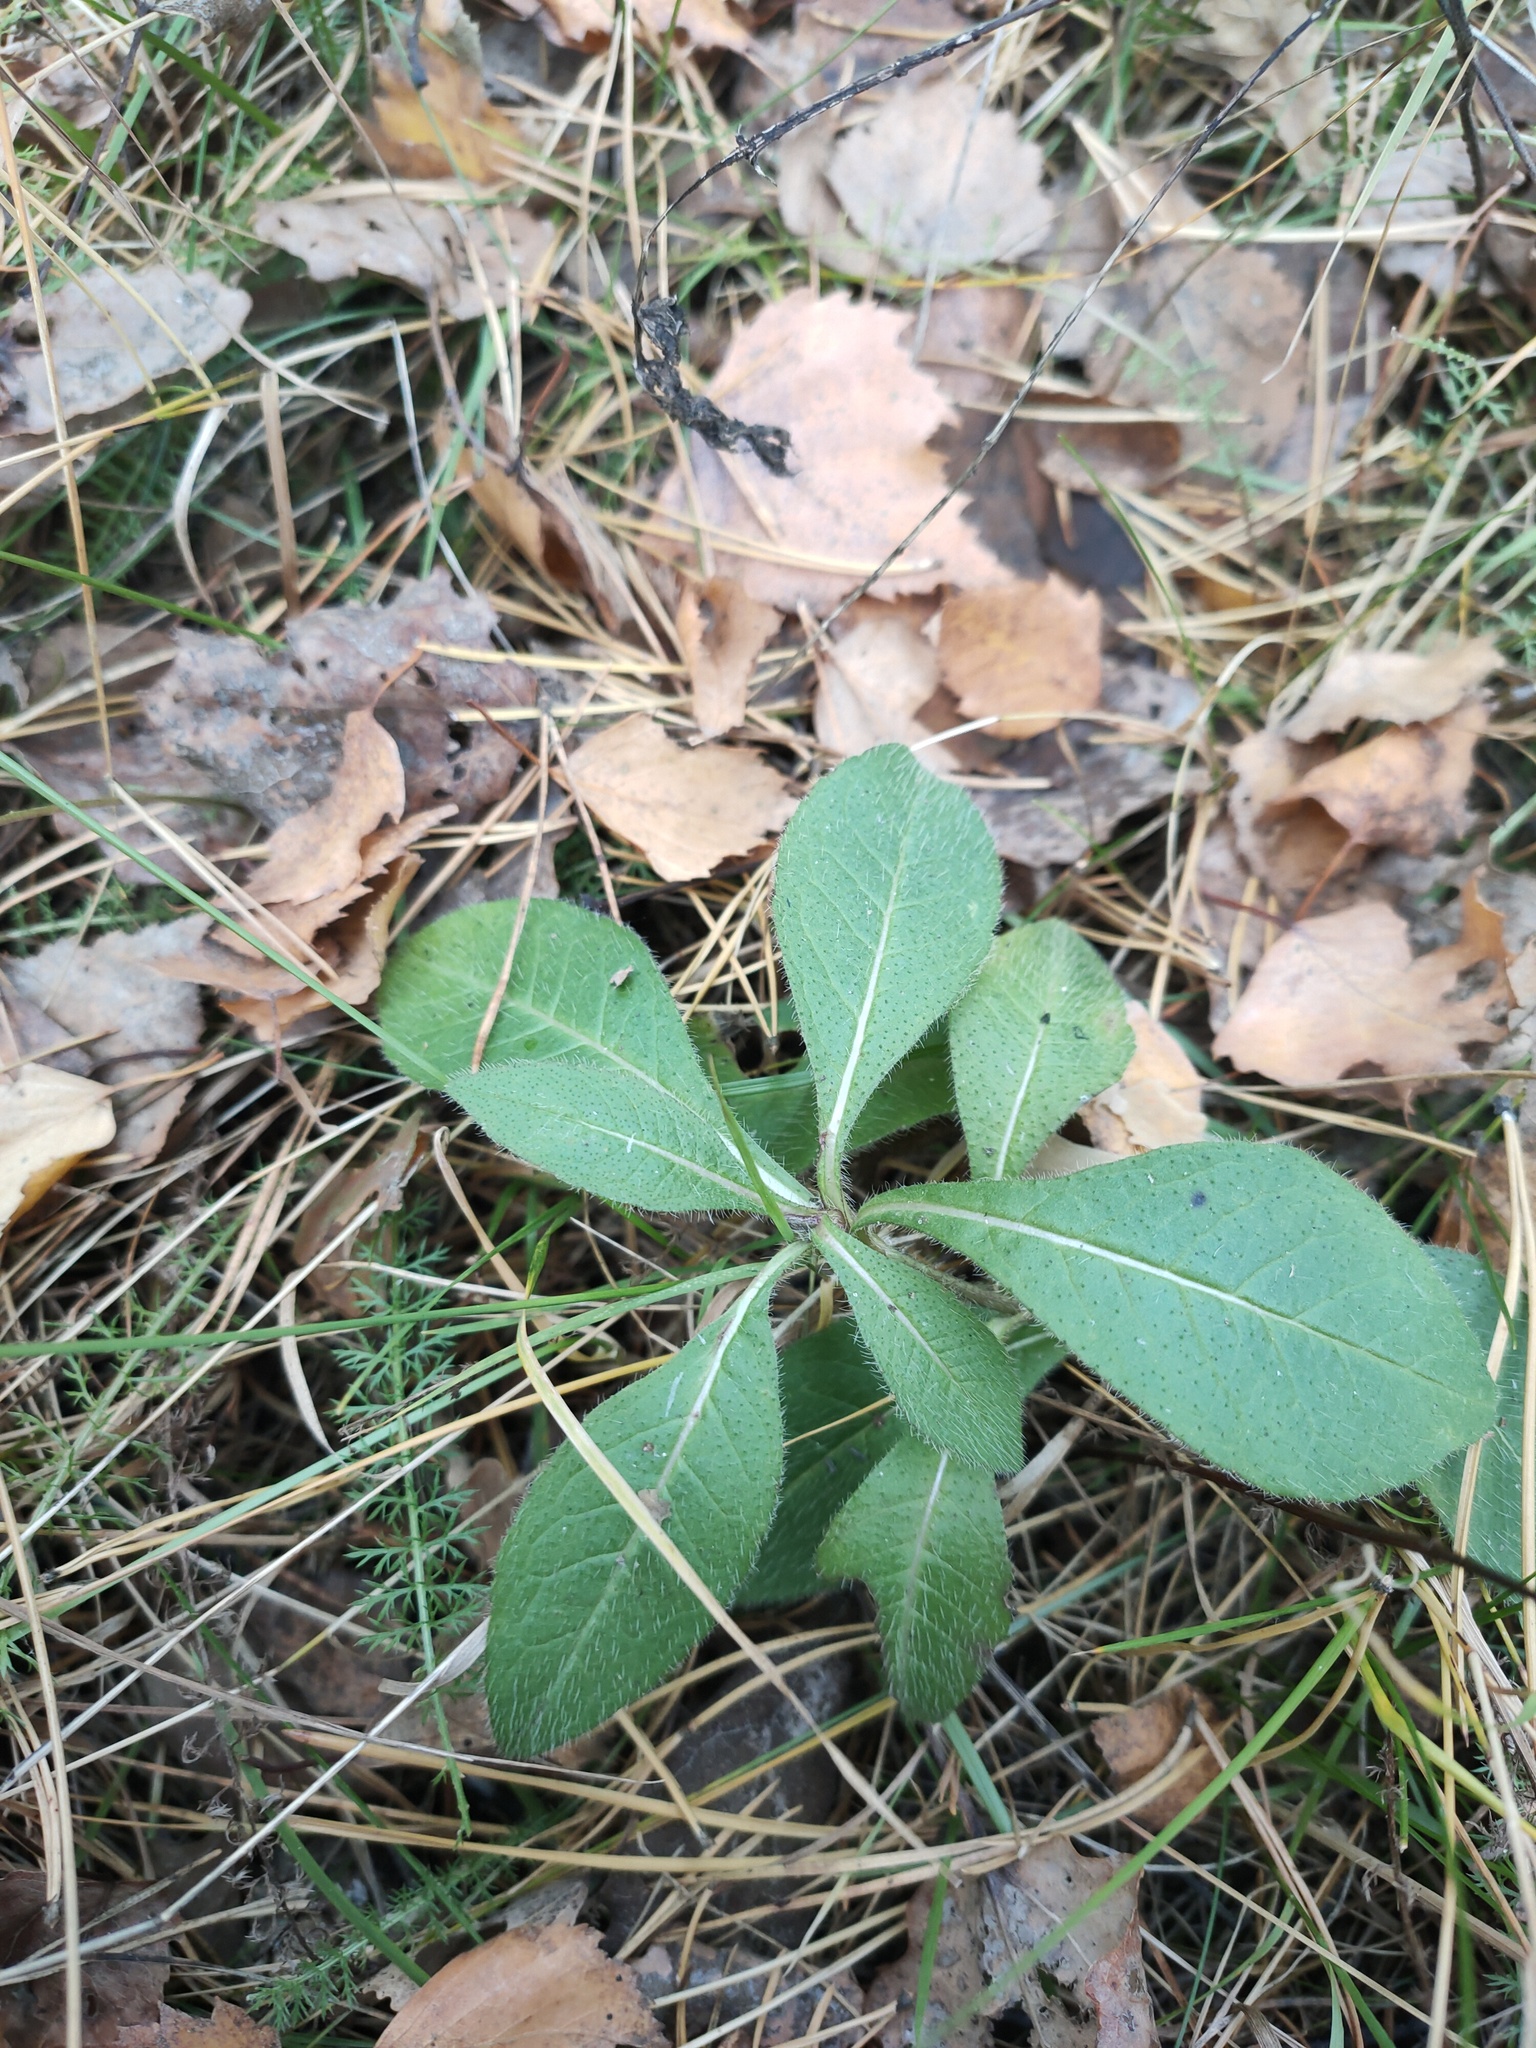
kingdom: Plantae
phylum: Tracheophyta
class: Magnoliopsida
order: Dipsacales
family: Caprifoliaceae
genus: Knautia
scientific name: Knautia arvensis
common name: Field scabiosa
